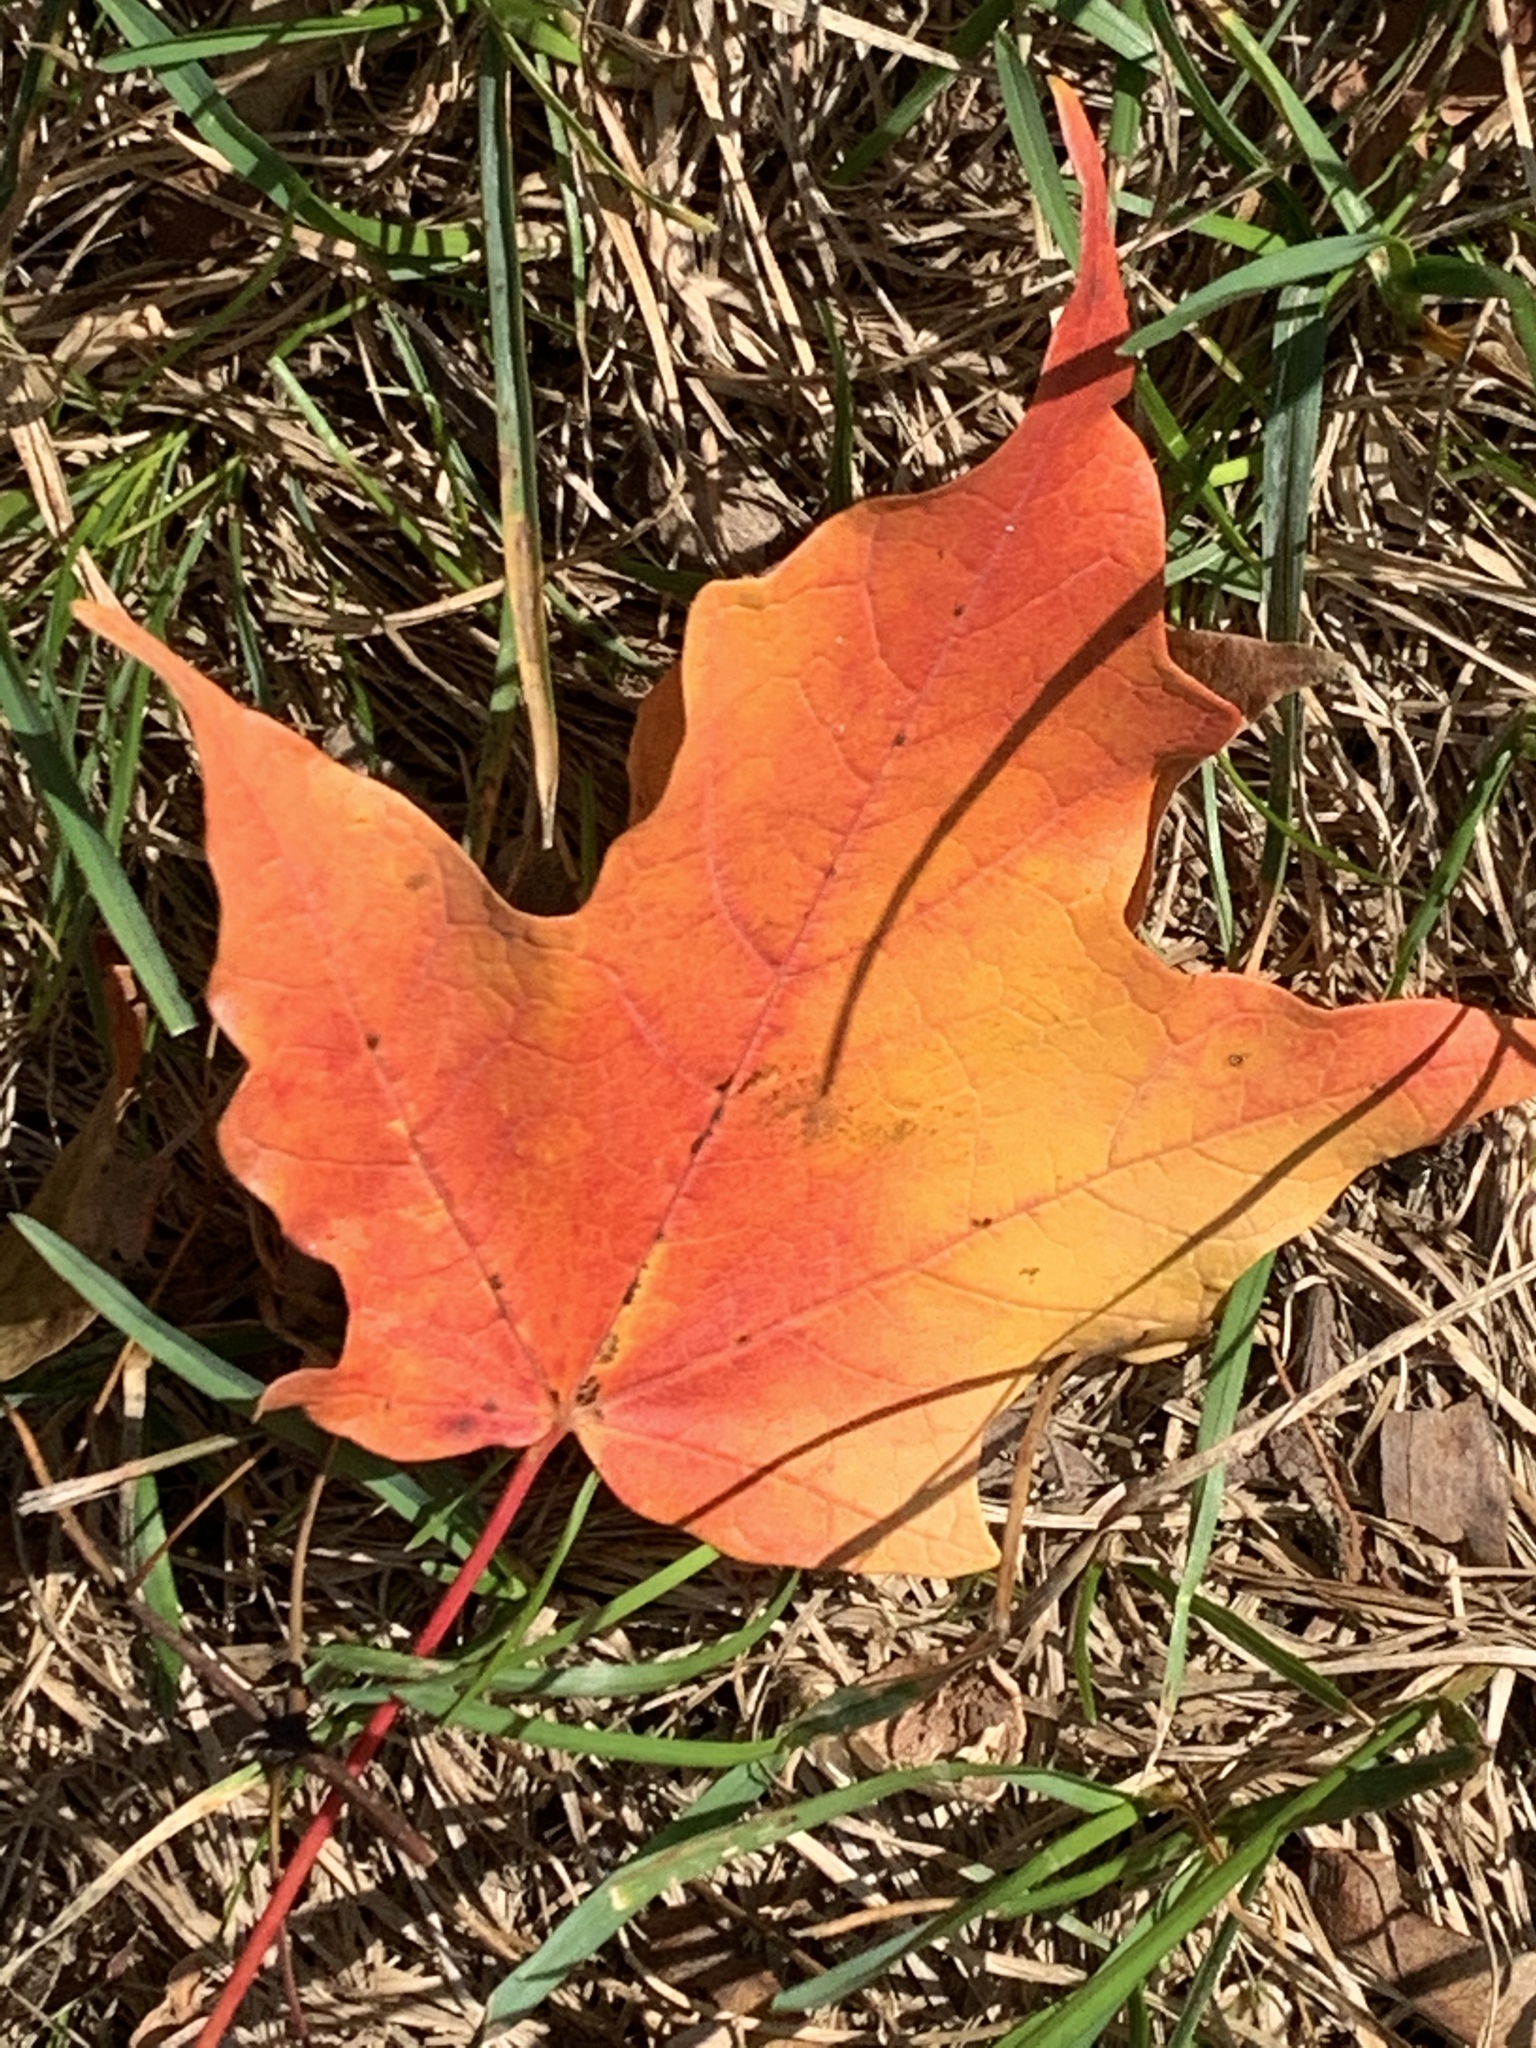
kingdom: Plantae
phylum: Tracheophyta
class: Magnoliopsida
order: Sapindales
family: Sapindaceae
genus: Acer
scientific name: Acer saccharum
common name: Sugar maple
